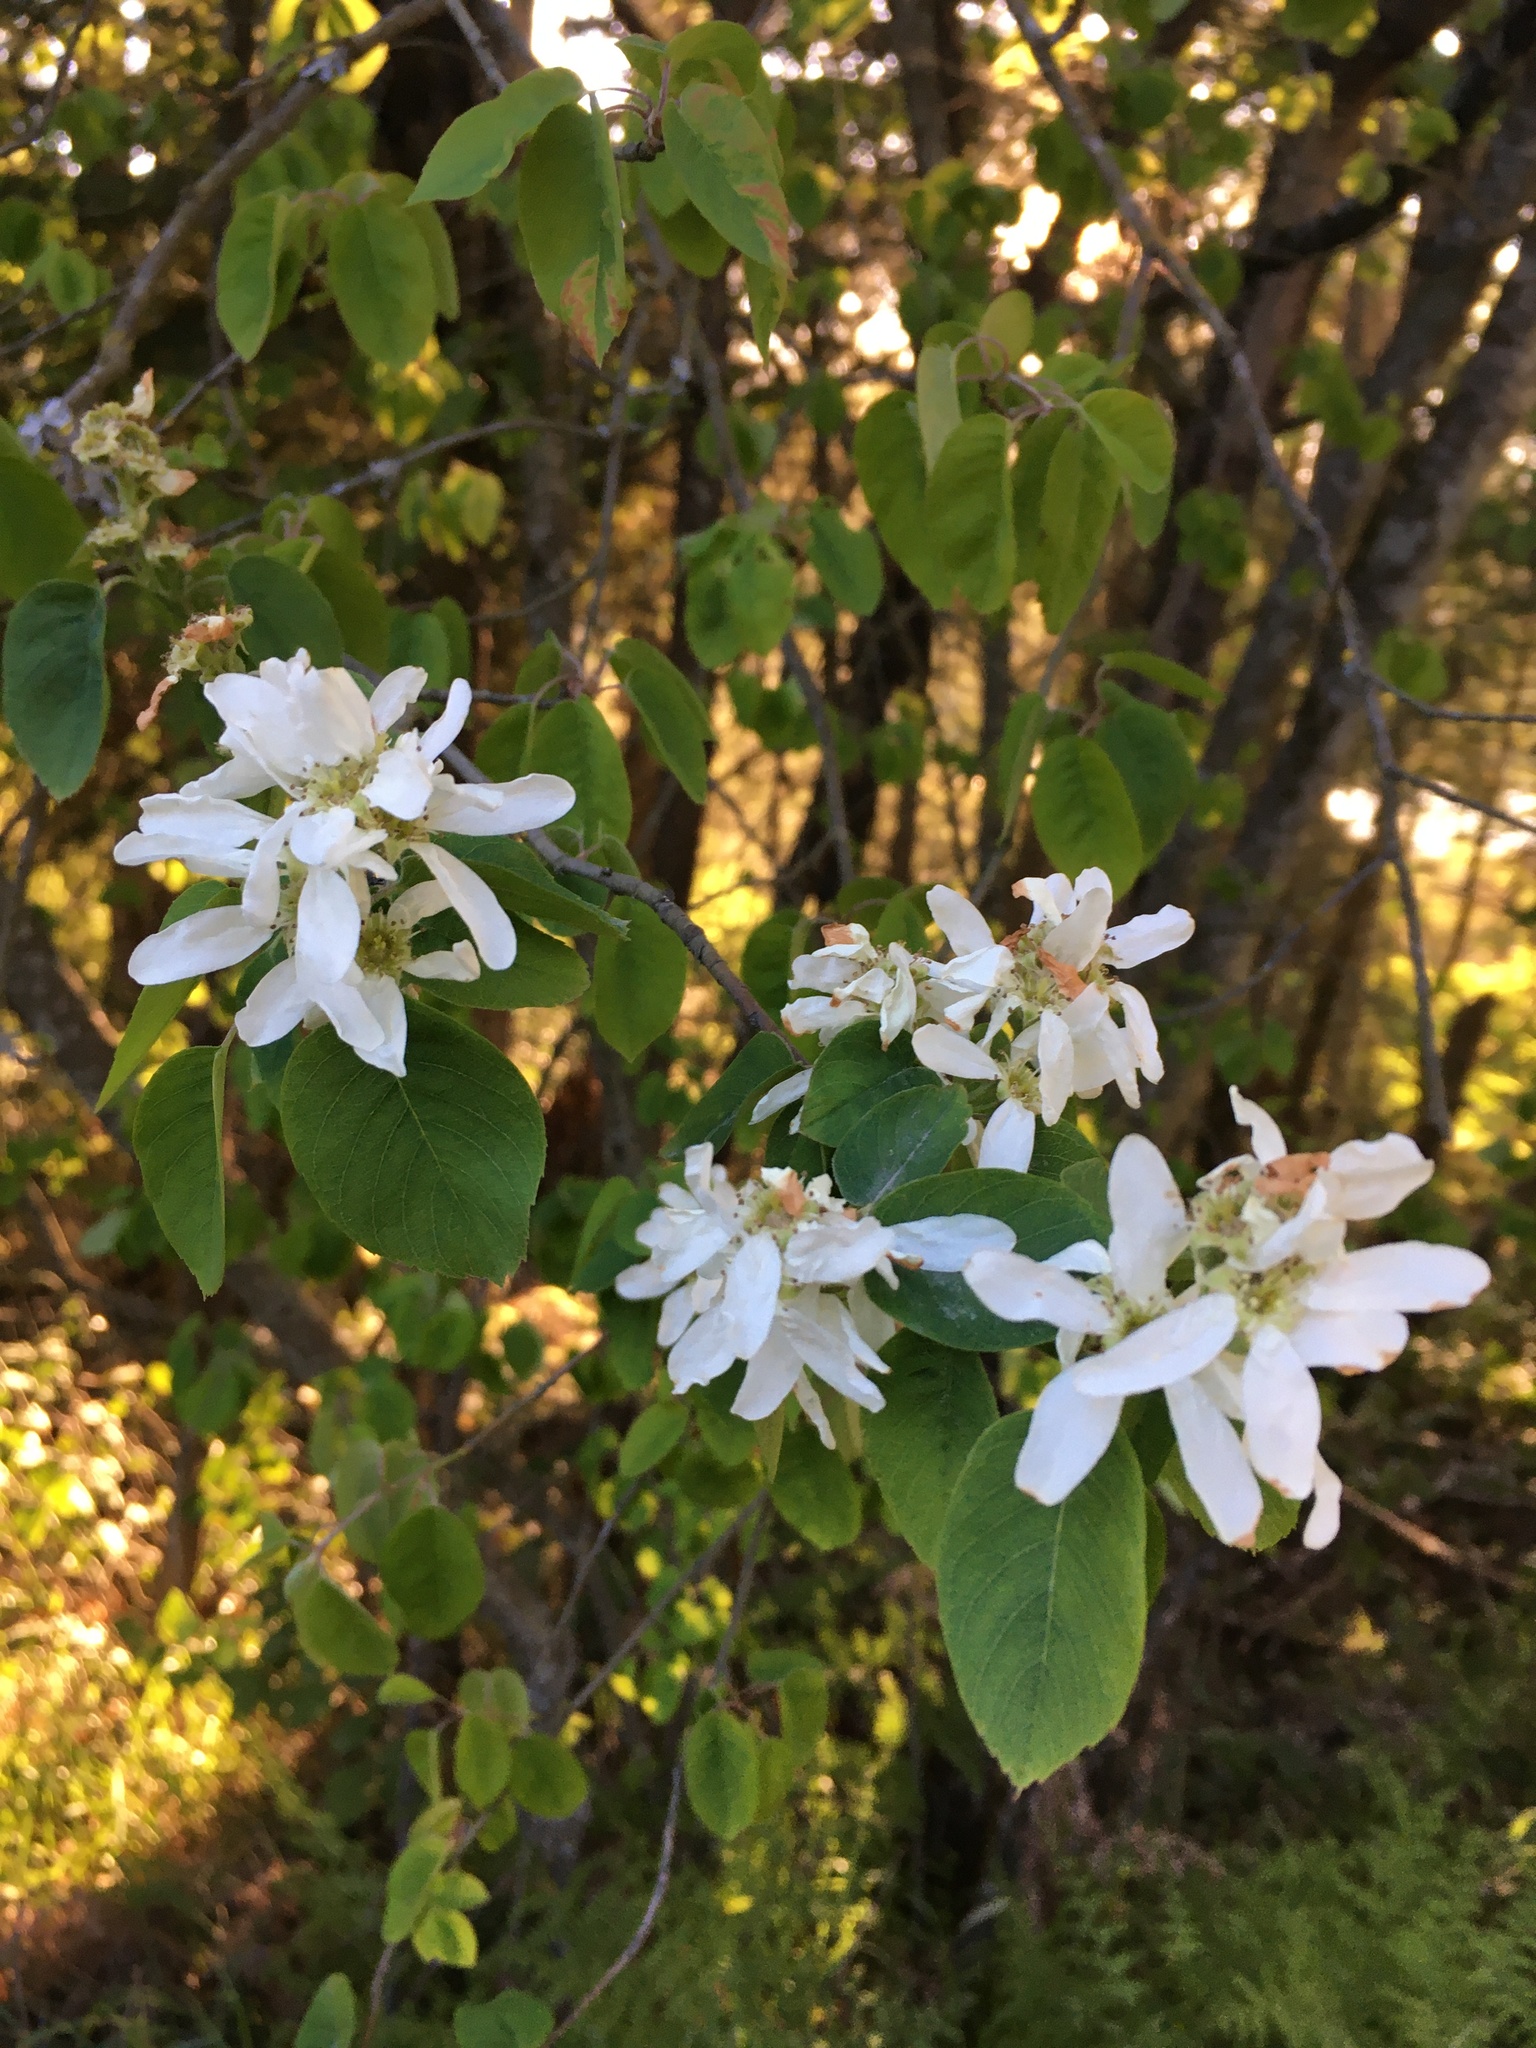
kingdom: Plantae
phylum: Tracheophyta
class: Magnoliopsida
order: Rosales
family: Rosaceae
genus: Amelanchier
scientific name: Amelanchier alnifolia
